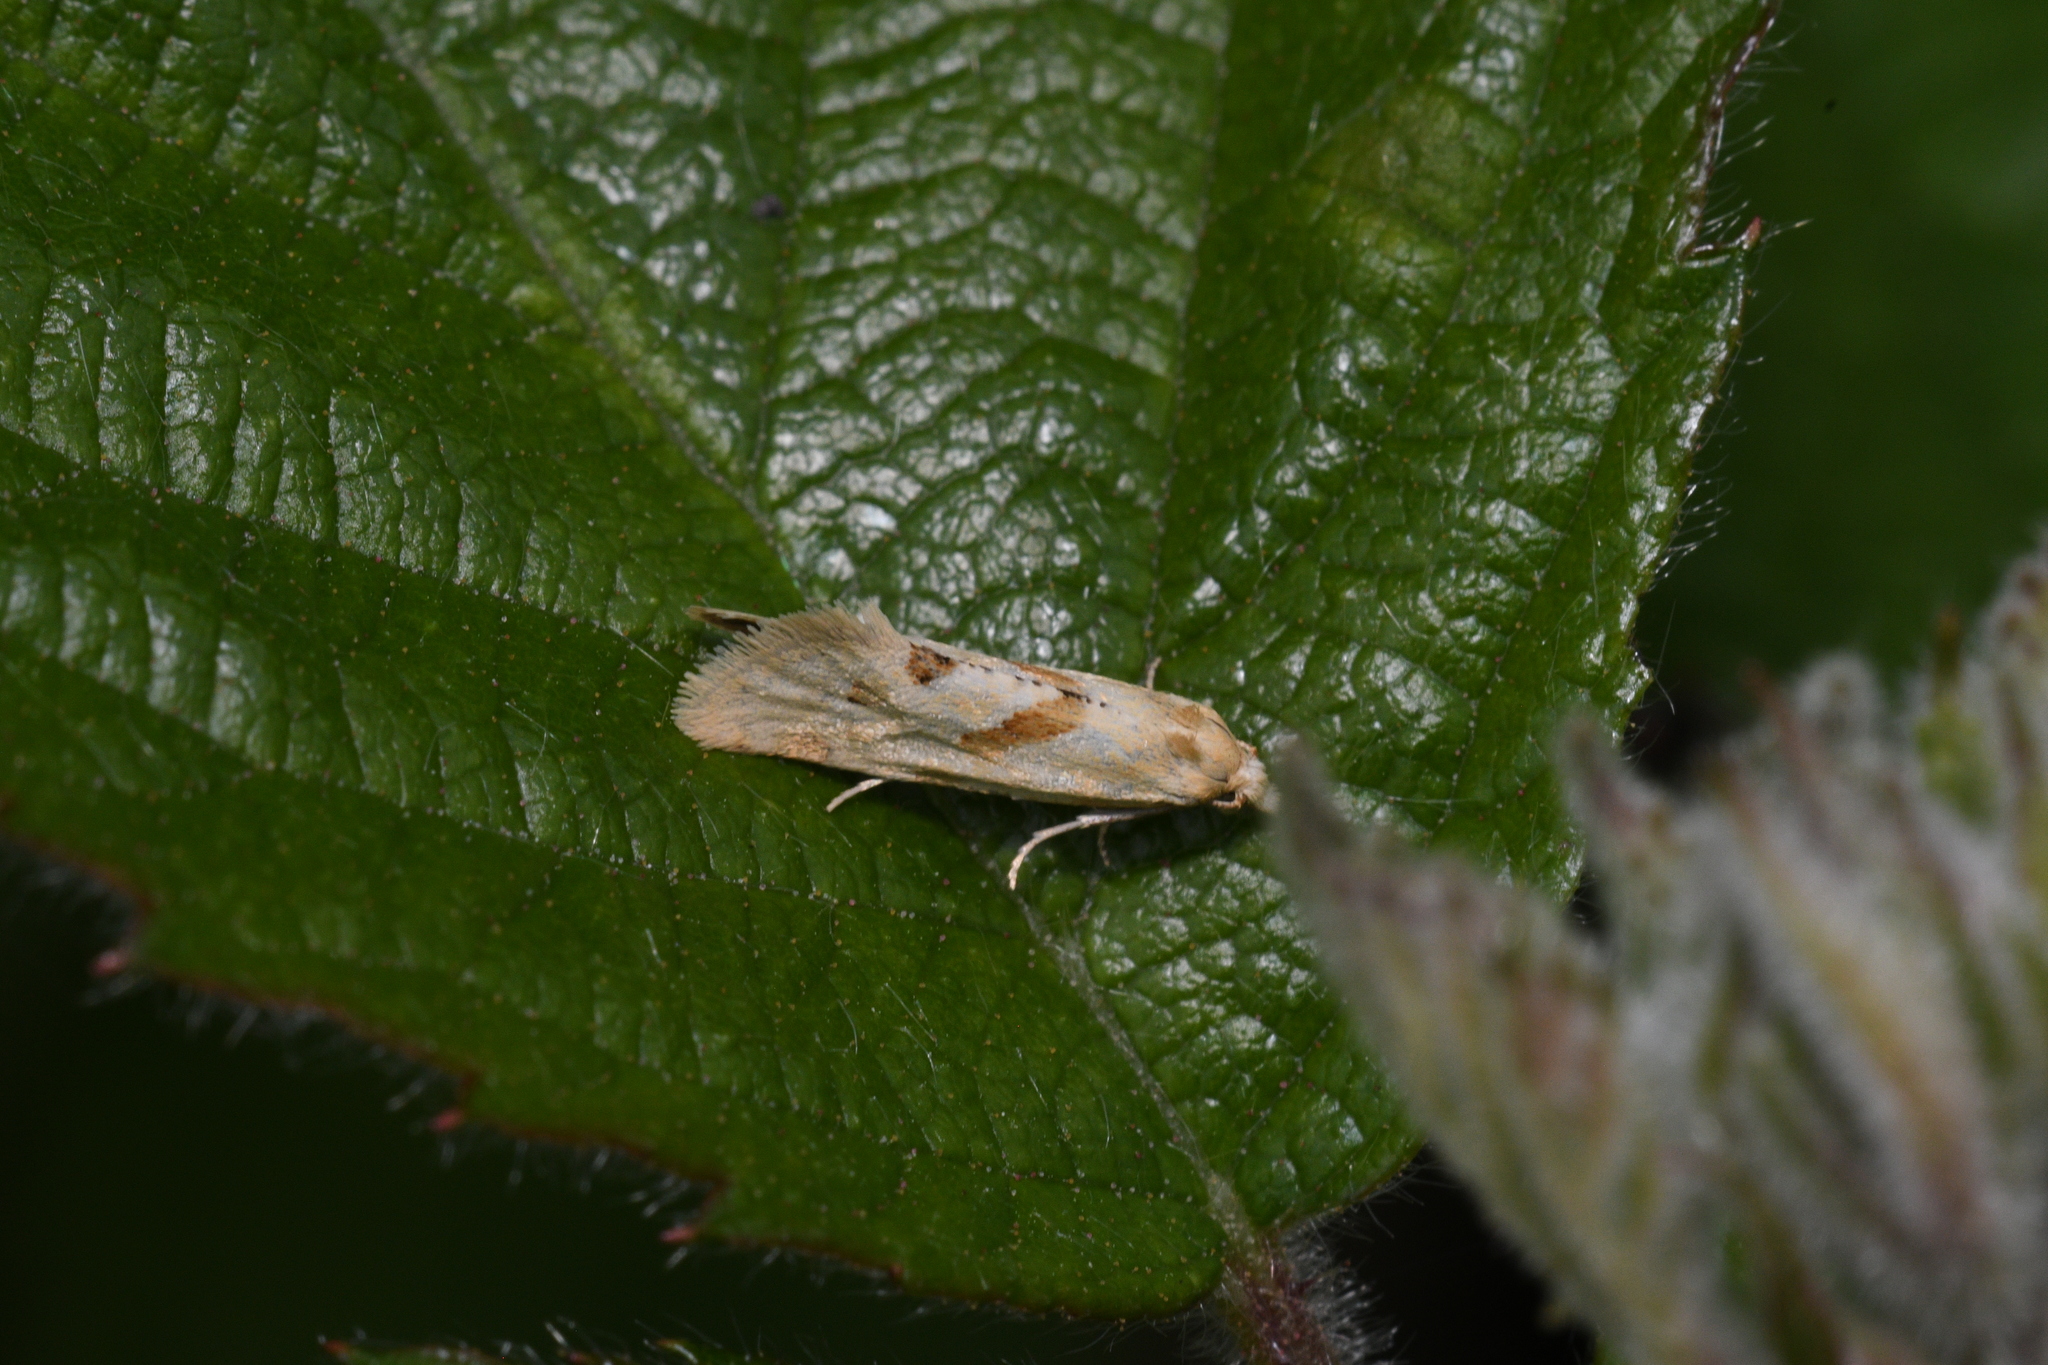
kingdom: Animalia
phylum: Arthropoda
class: Insecta
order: Lepidoptera
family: Tortricidae
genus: Aethes
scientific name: Aethes smeathmanniana
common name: Yarrow conch
